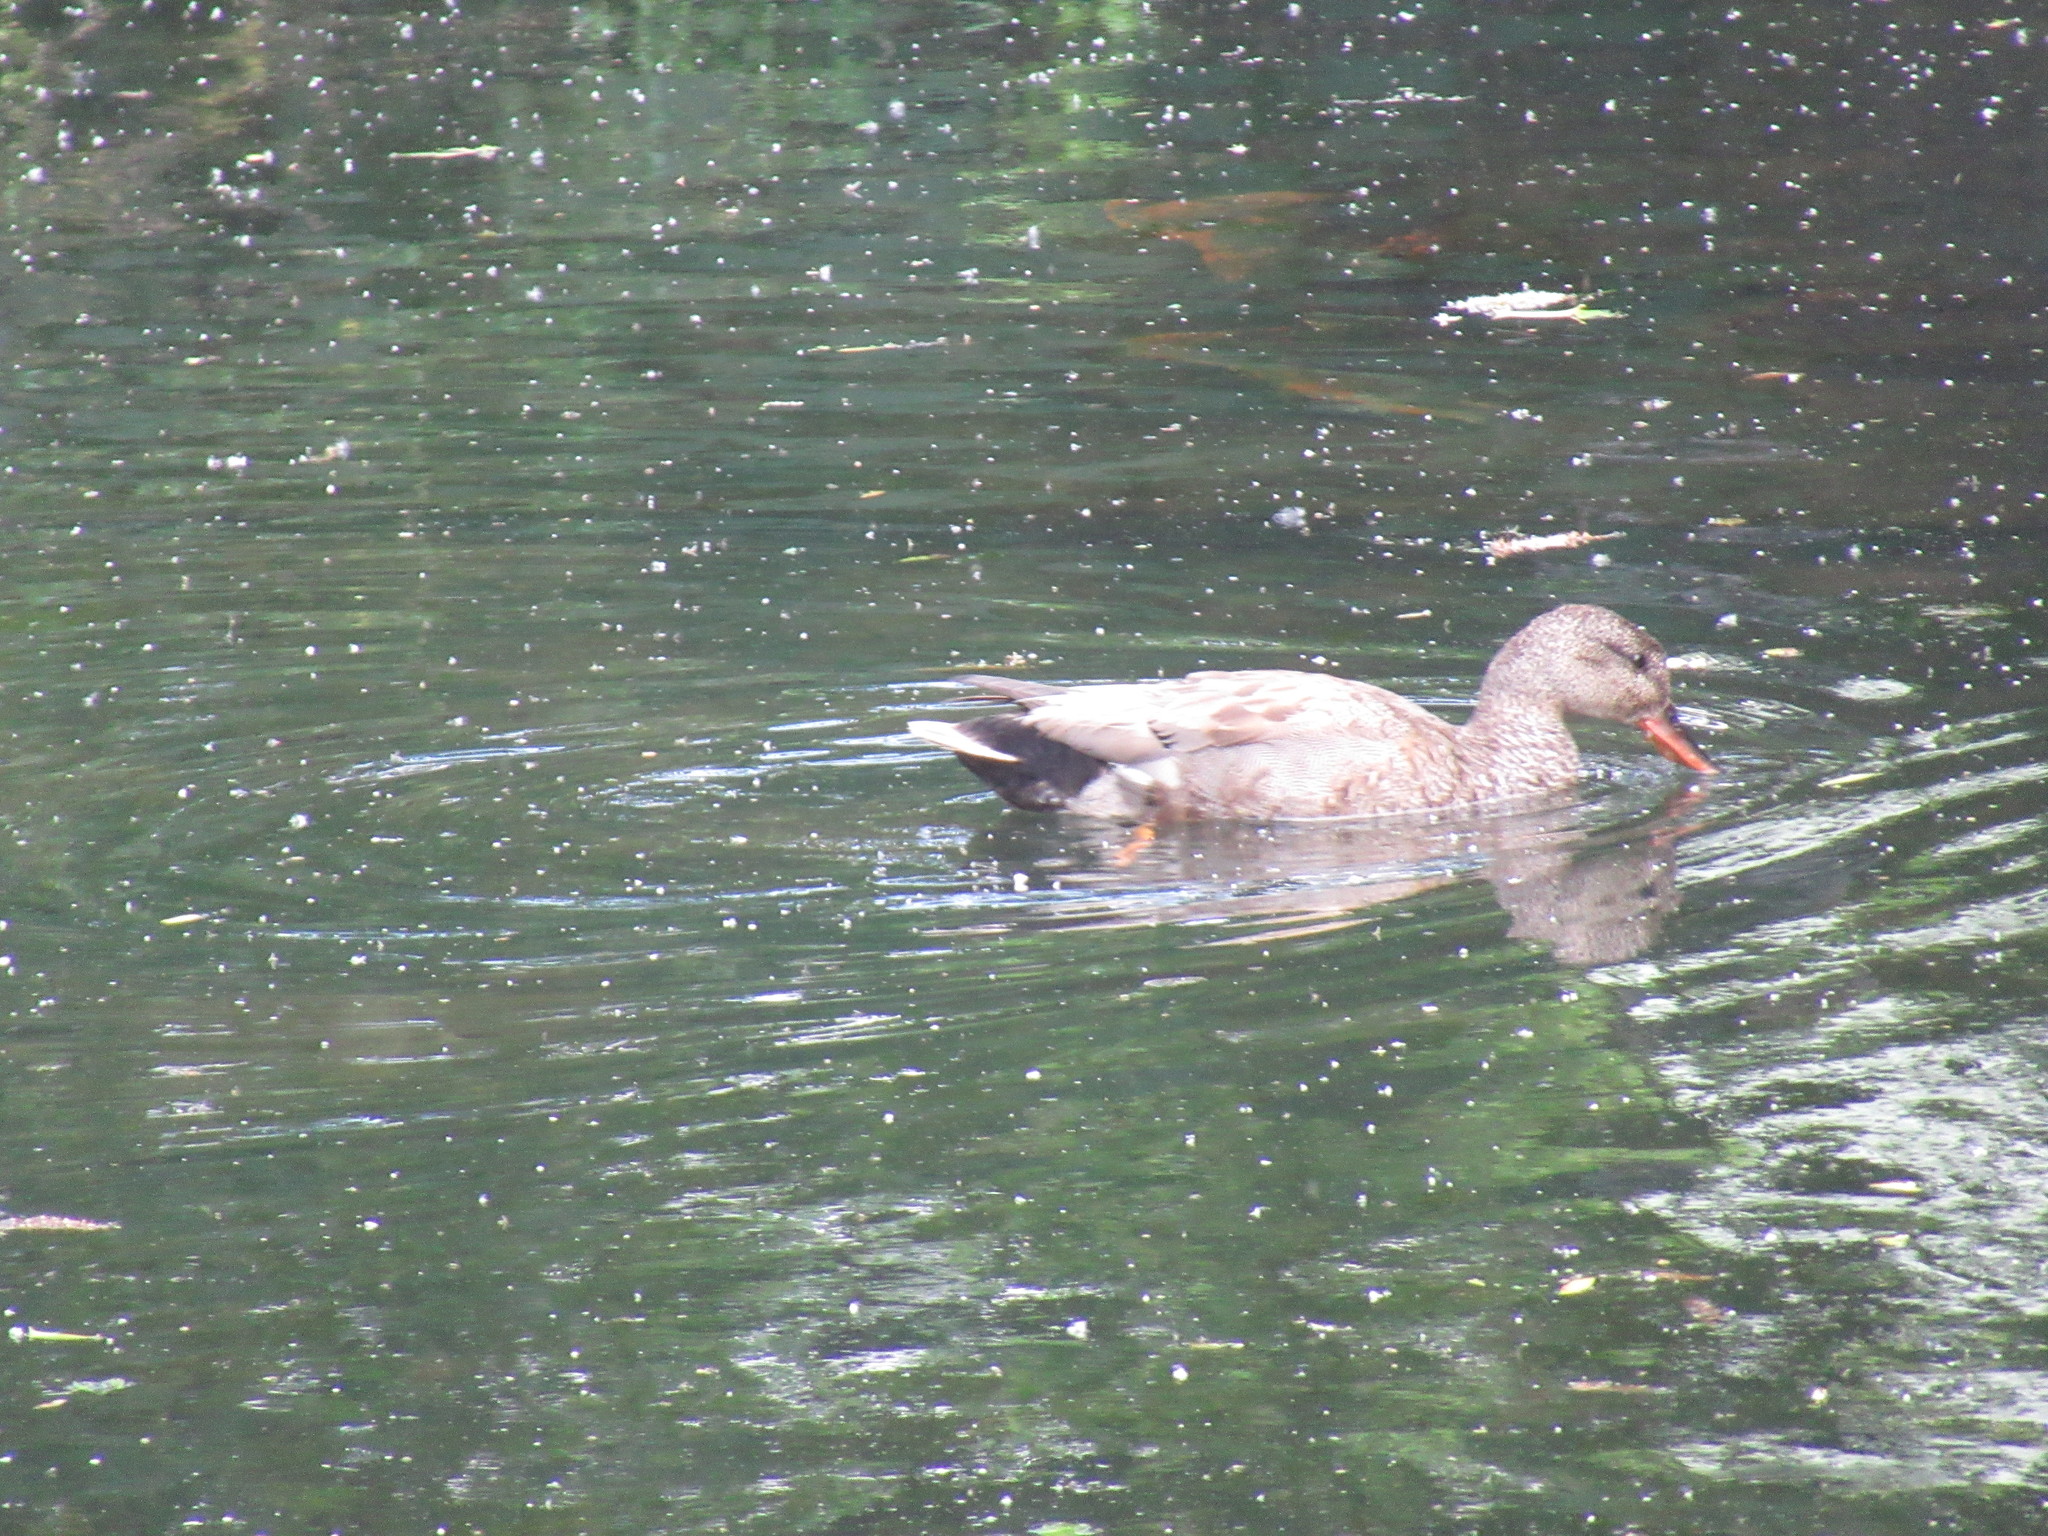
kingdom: Animalia
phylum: Chordata
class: Aves
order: Anseriformes
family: Anatidae
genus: Mareca
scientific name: Mareca strepera
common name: Gadwall
